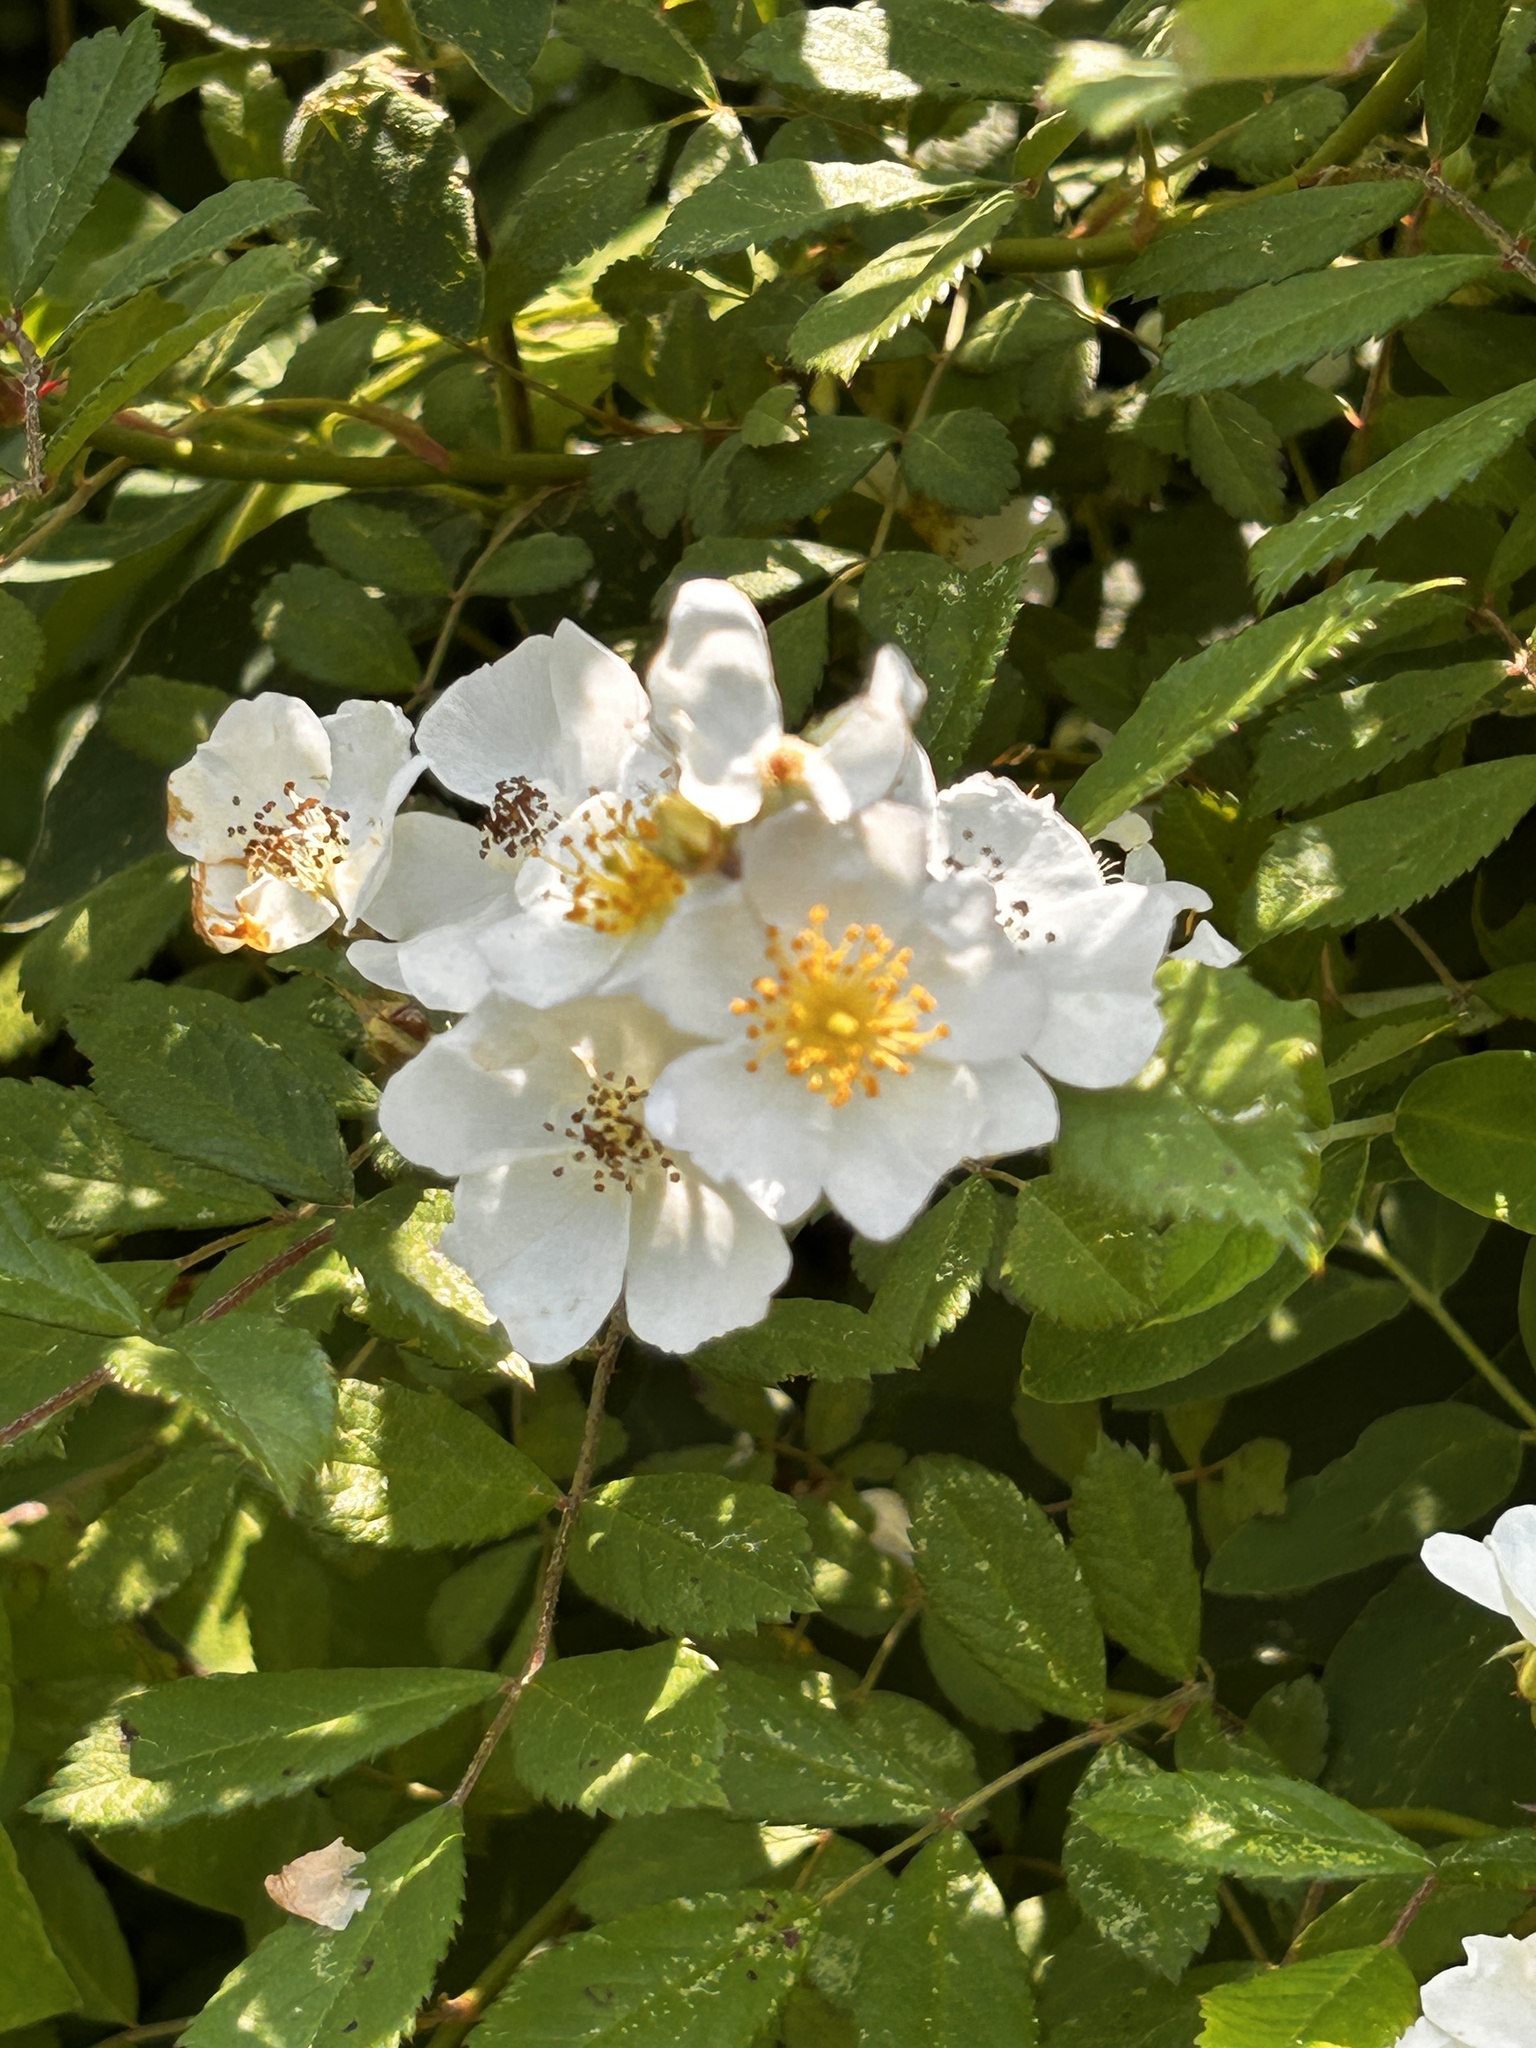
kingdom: Plantae
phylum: Tracheophyta
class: Magnoliopsida
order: Rosales
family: Rosaceae
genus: Rosa
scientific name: Rosa multiflora
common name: Multiflora rose
